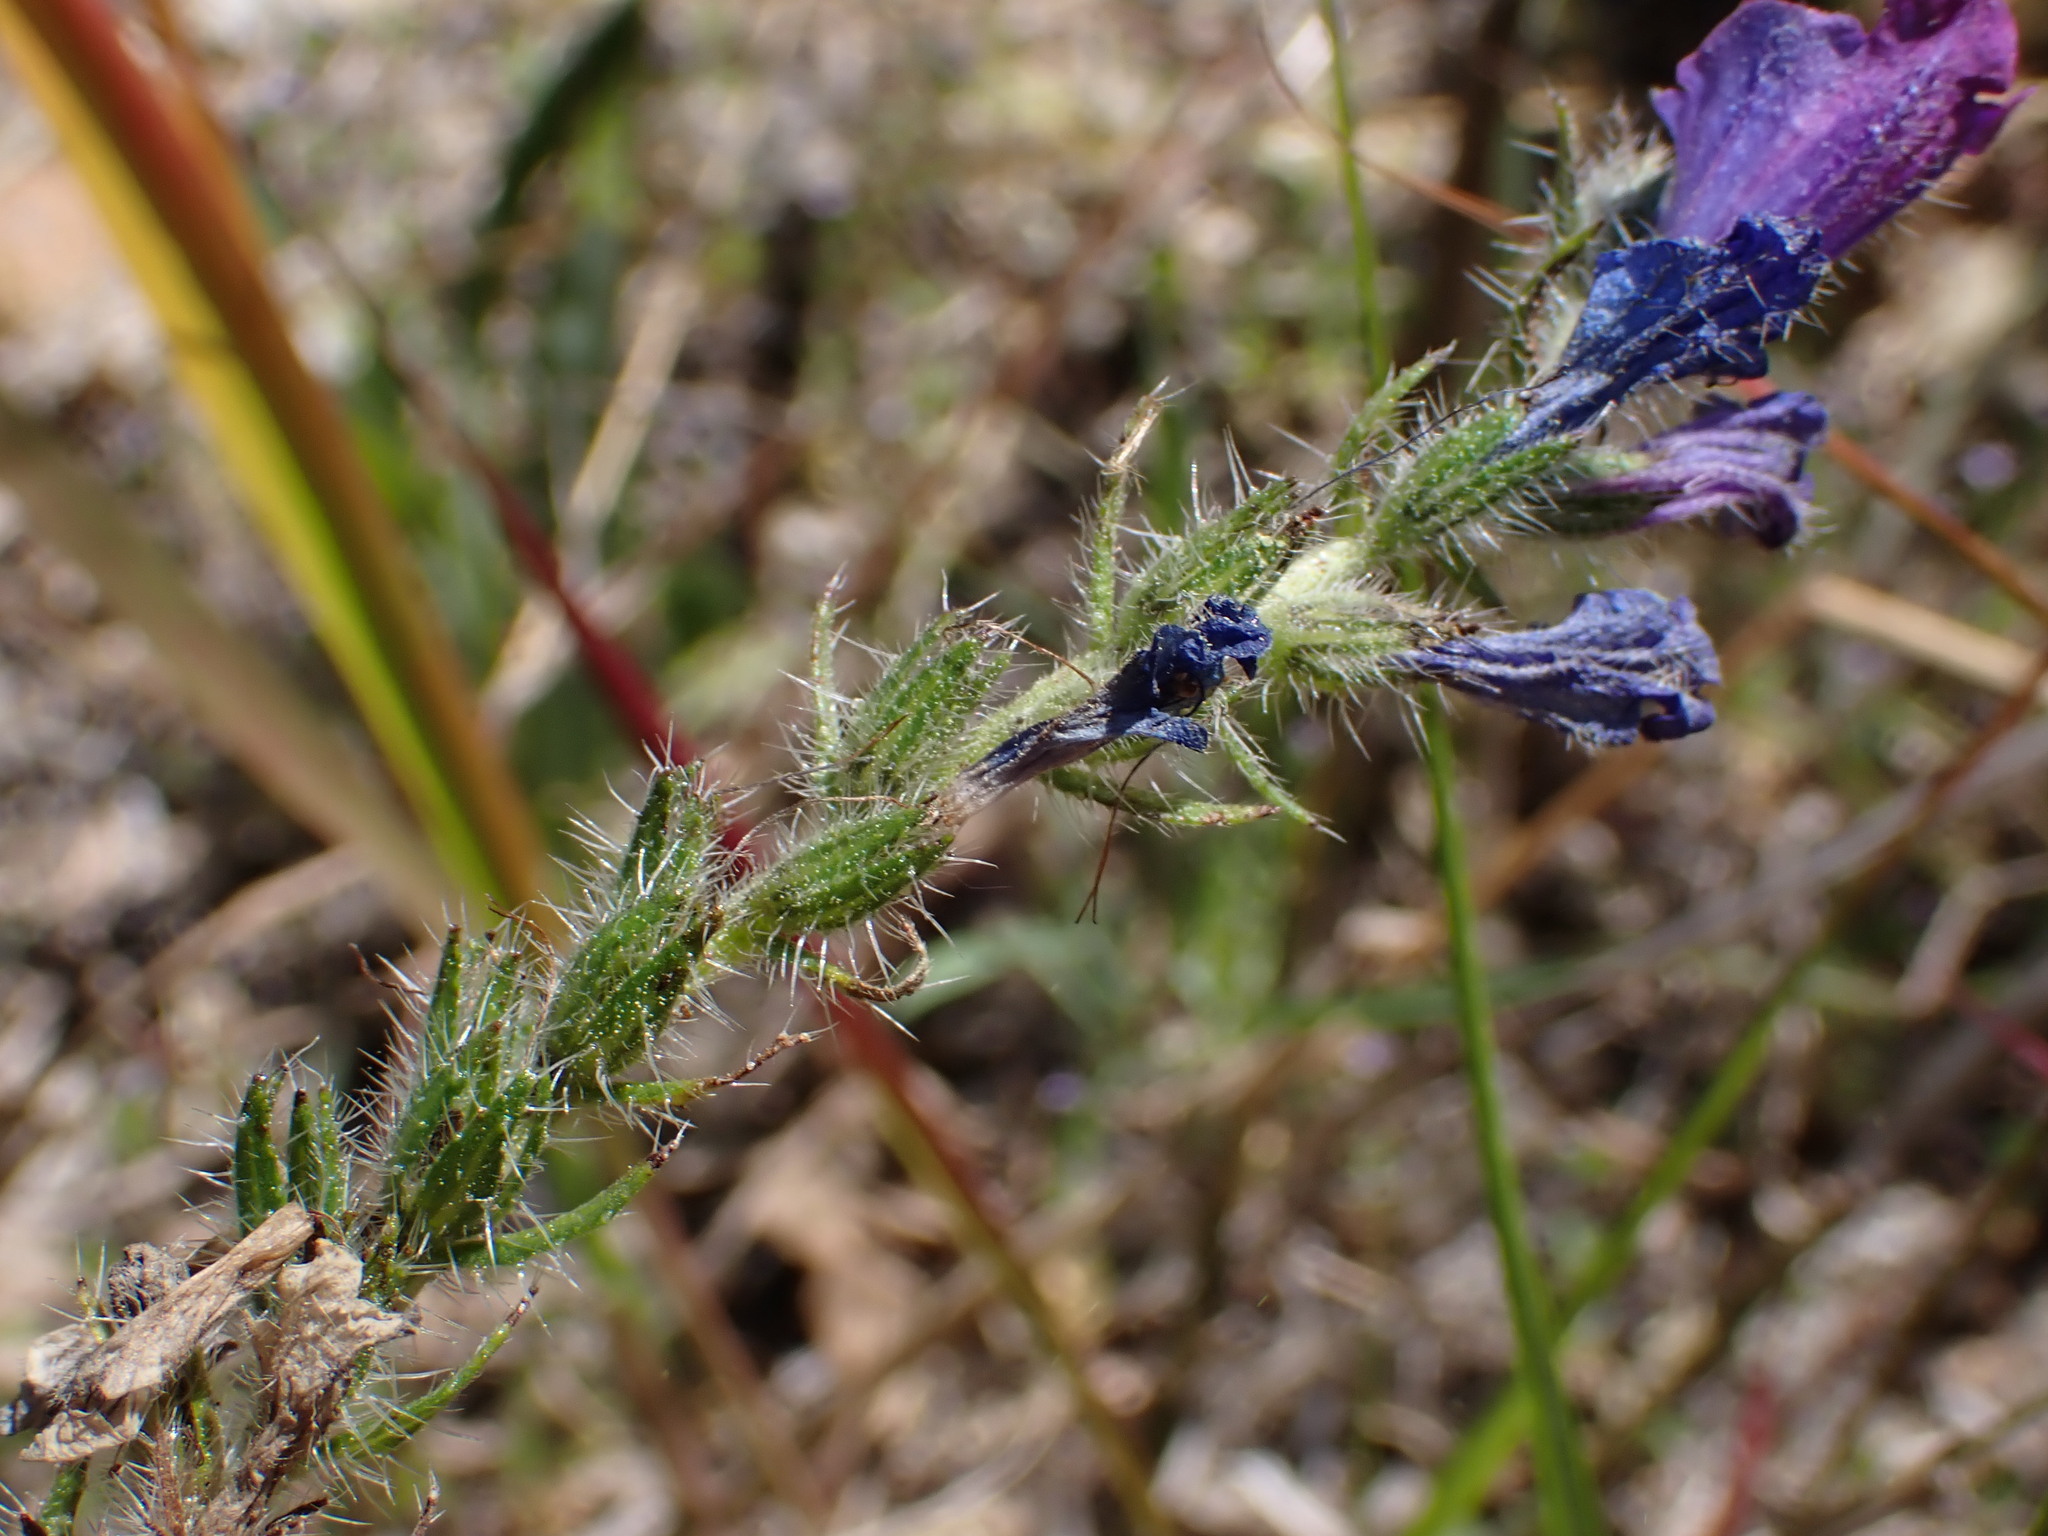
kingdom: Plantae
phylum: Tracheophyta
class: Magnoliopsida
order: Boraginales
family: Boraginaceae
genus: Echium
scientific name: Echium vulgare
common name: Common viper's bugloss
